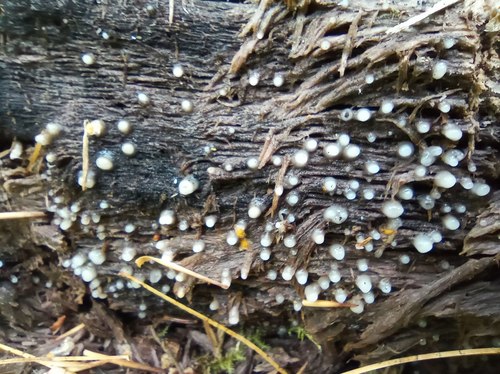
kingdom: Fungi
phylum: Basidiomycota
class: Atractiellomycetes
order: Atractiellales
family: Phleogenaceae
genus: Helicogloea
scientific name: Helicogloea compressa
